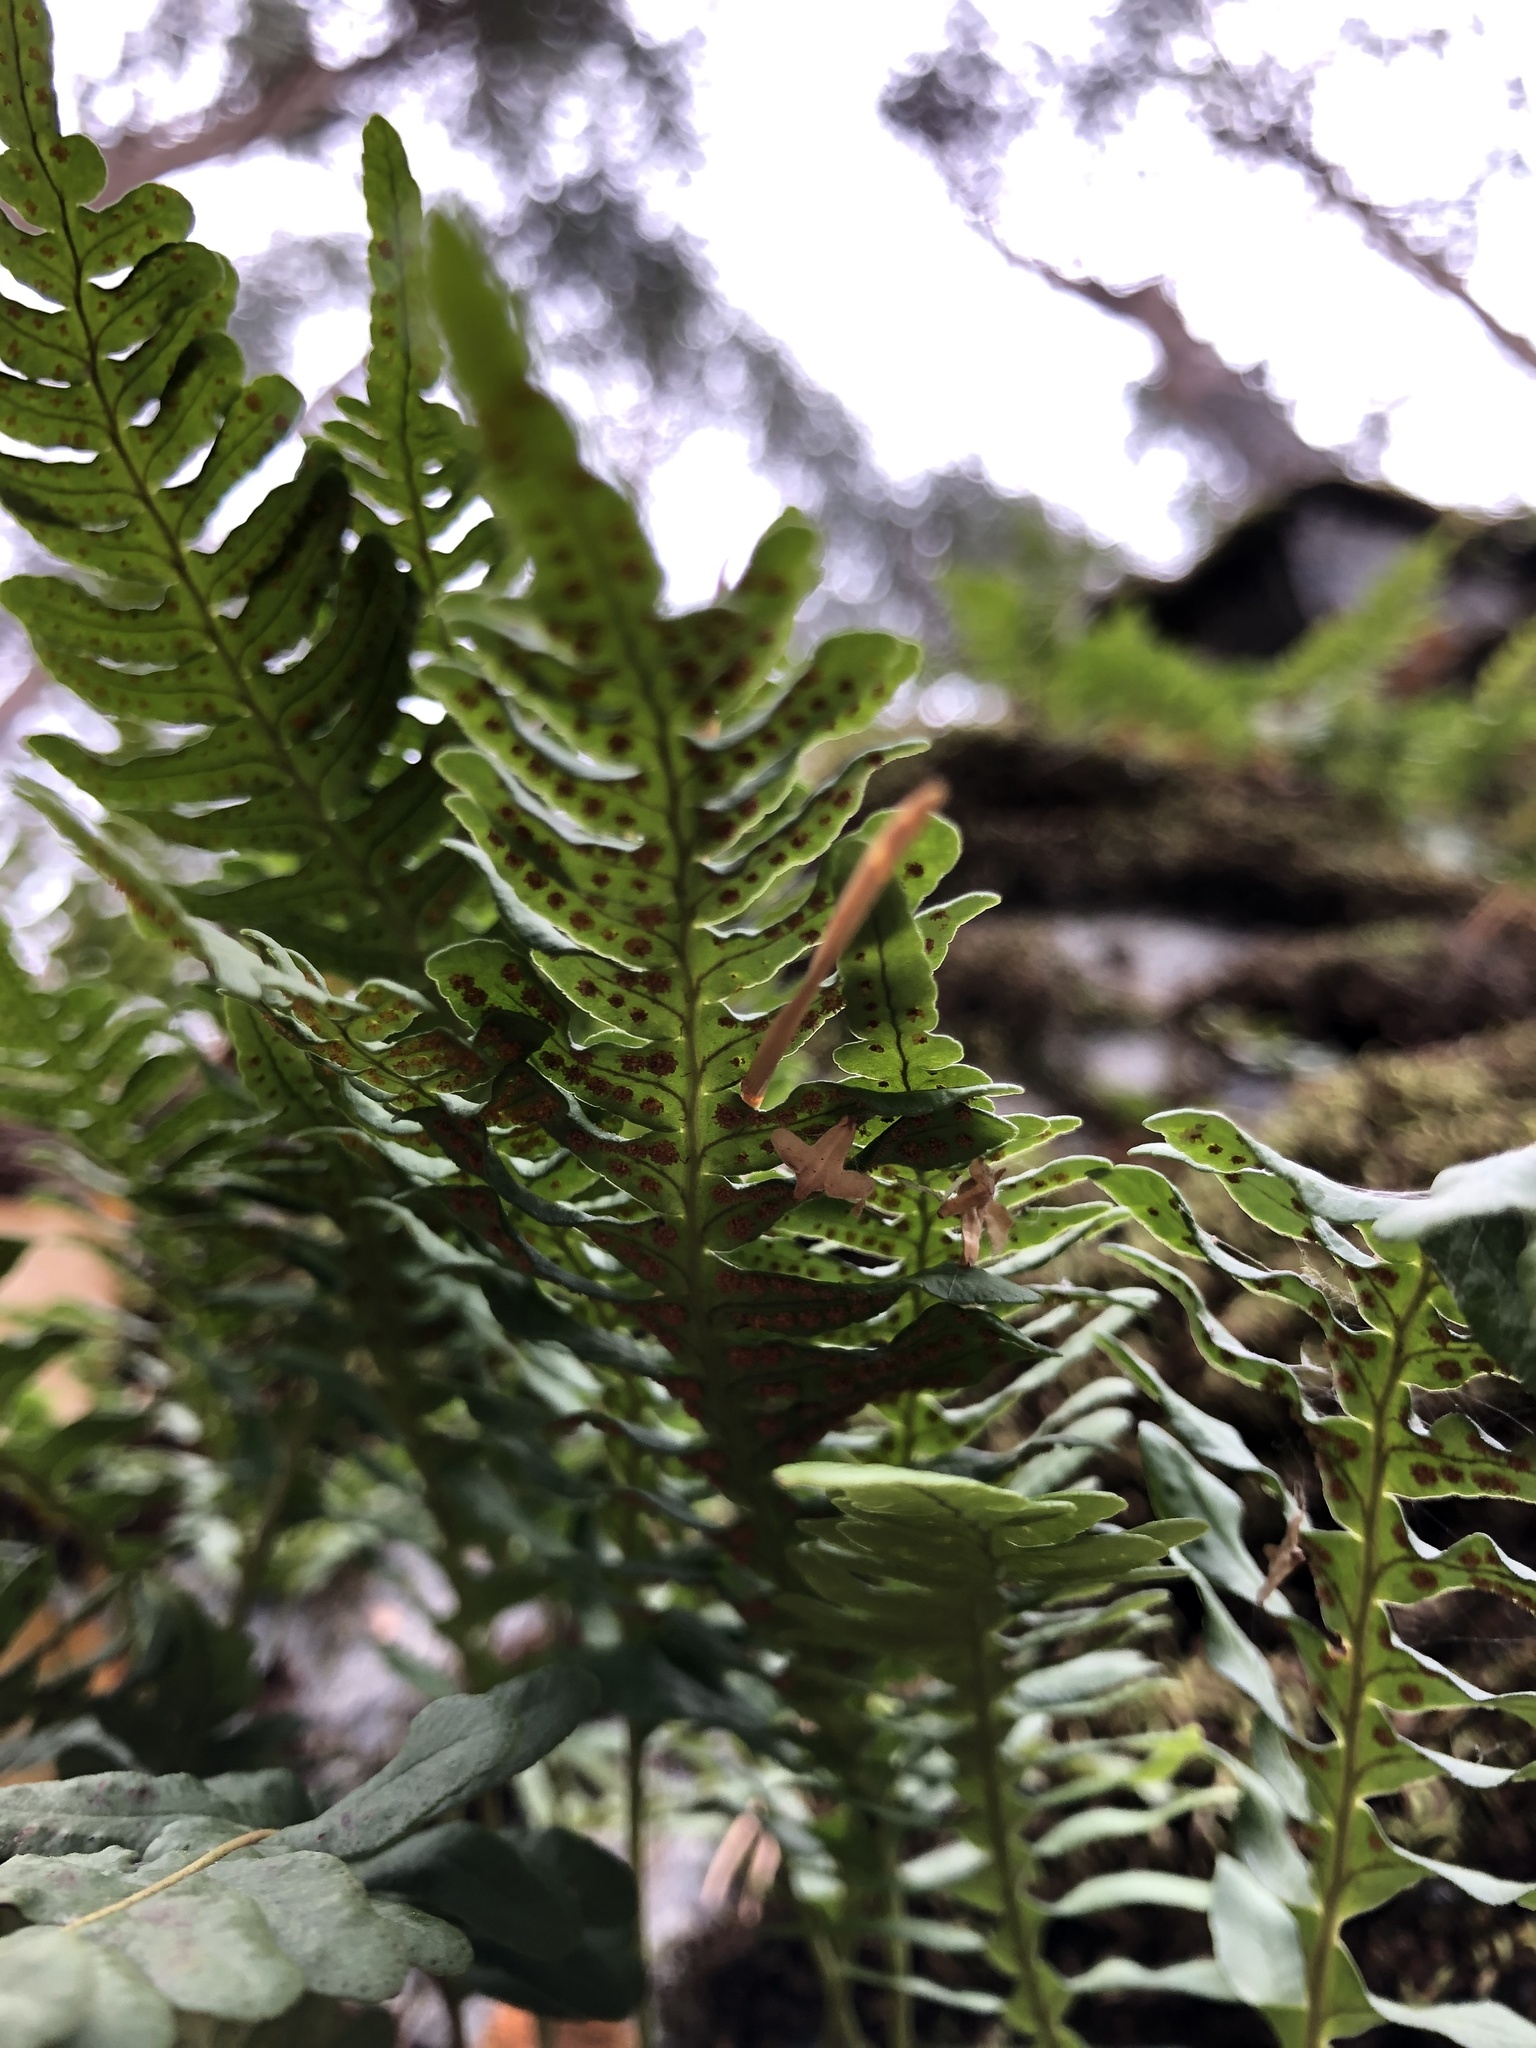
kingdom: Plantae
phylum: Tracheophyta
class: Polypodiopsida
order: Polypodiales
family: Polypodiaceae
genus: Polypodium
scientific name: Polypodium vulgare
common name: Common polypody
